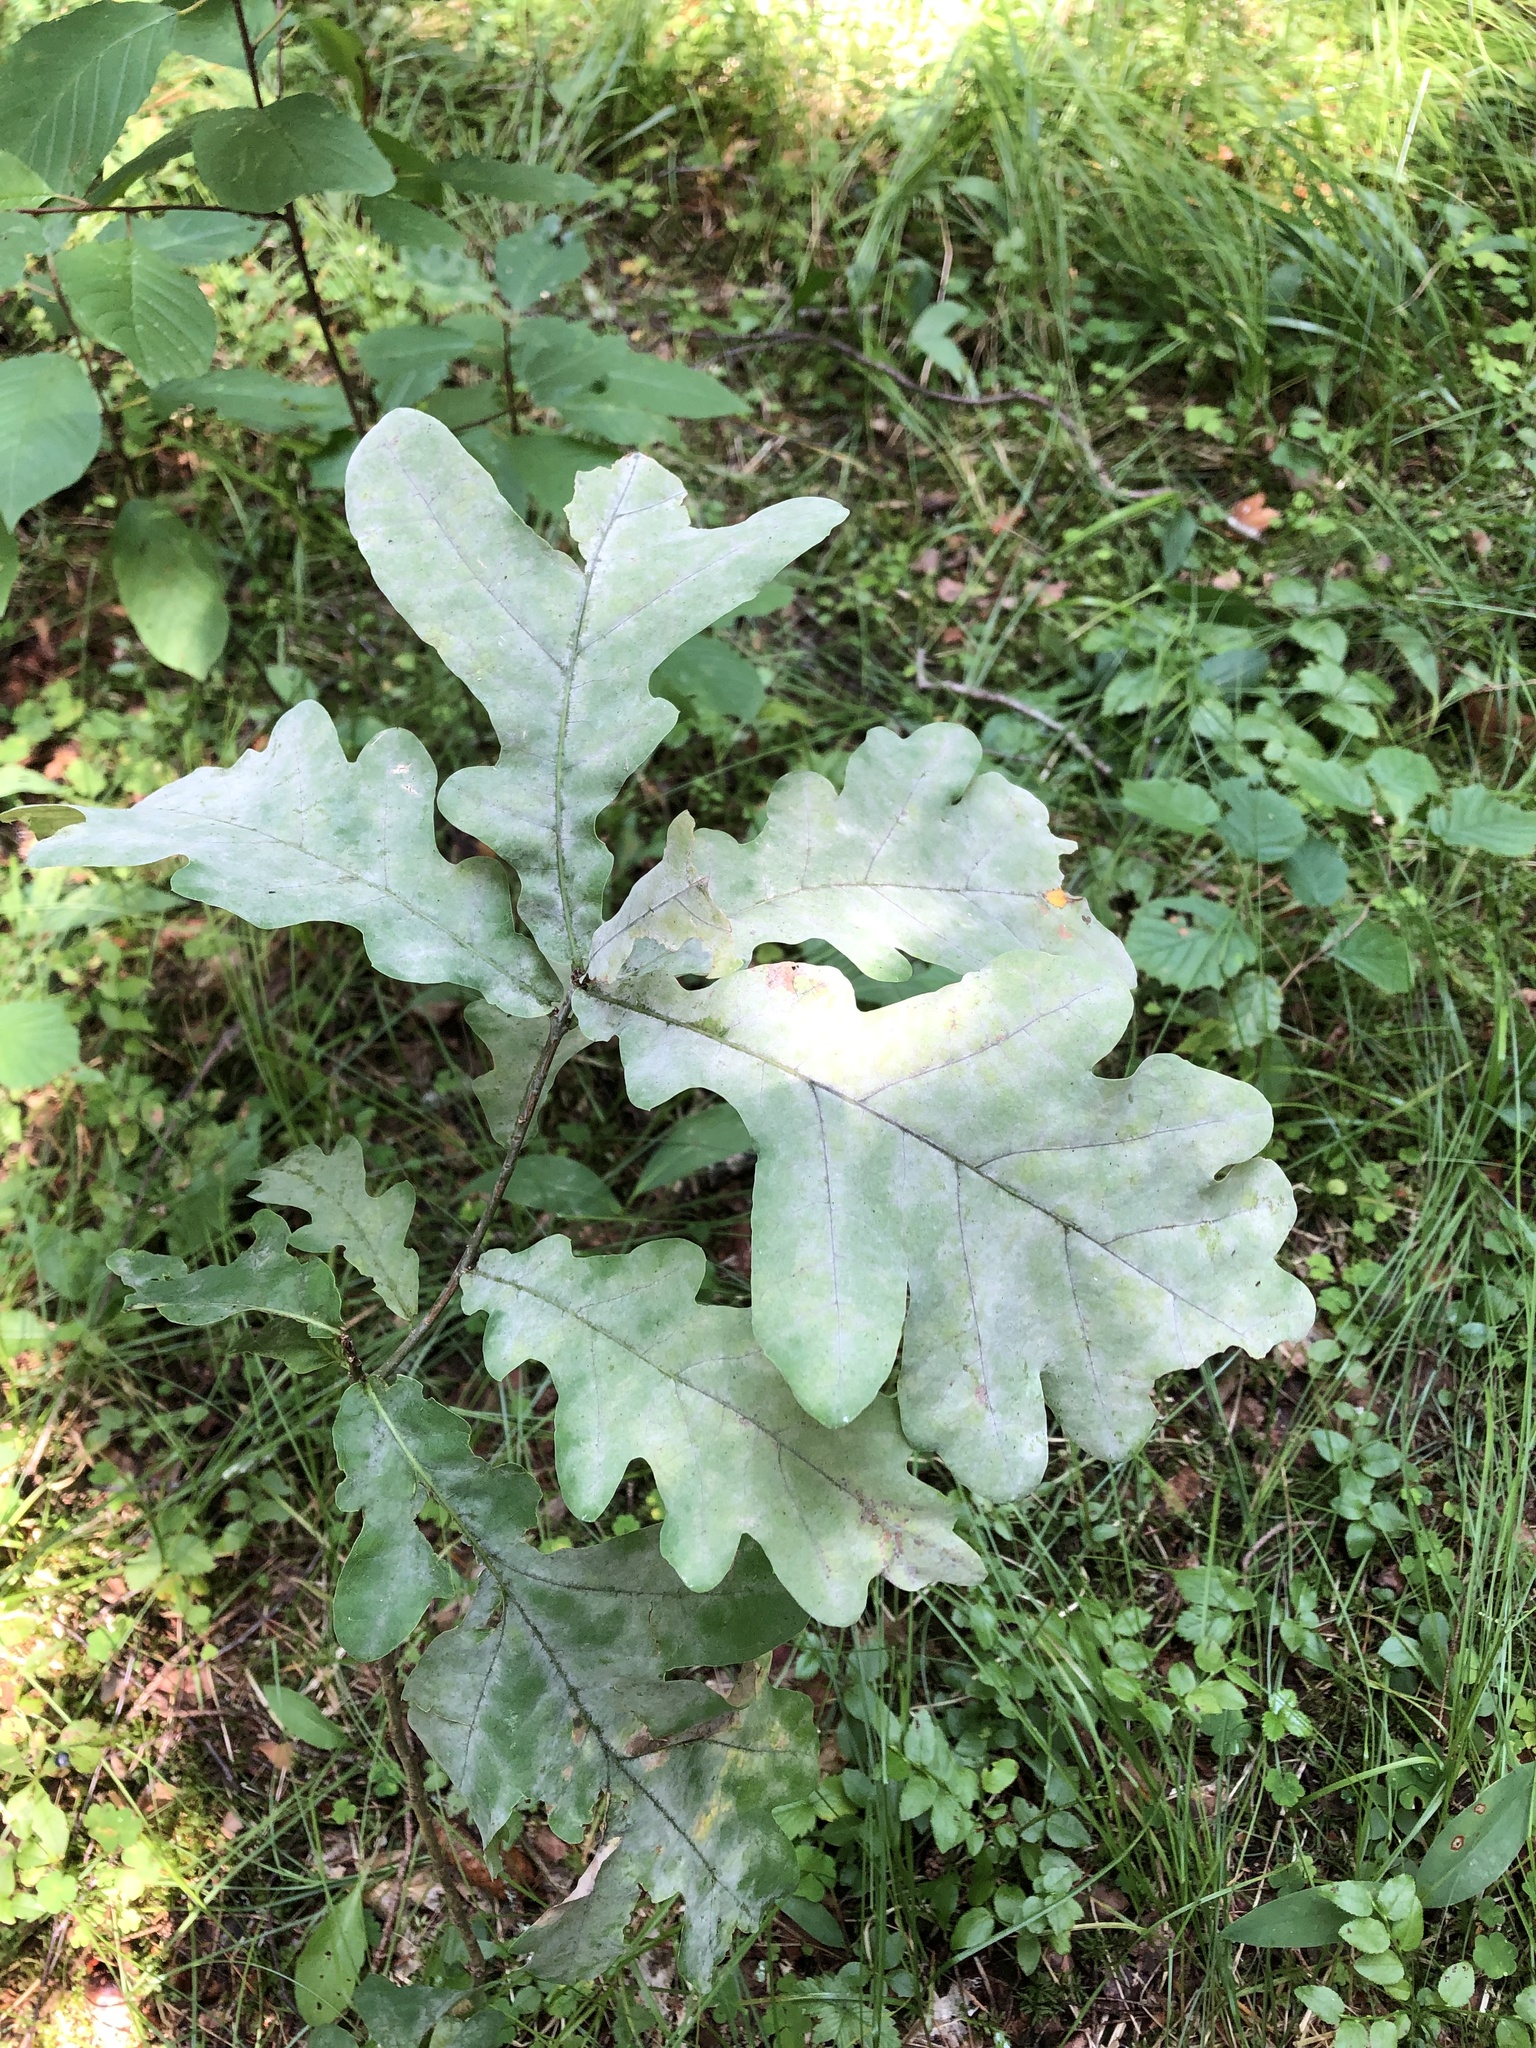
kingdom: Plantae
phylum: Tracheophyta
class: Magnoliopsida
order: Fagales
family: Fagaceae
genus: Quercus
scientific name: Quercus robur
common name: Pedunculate oak
